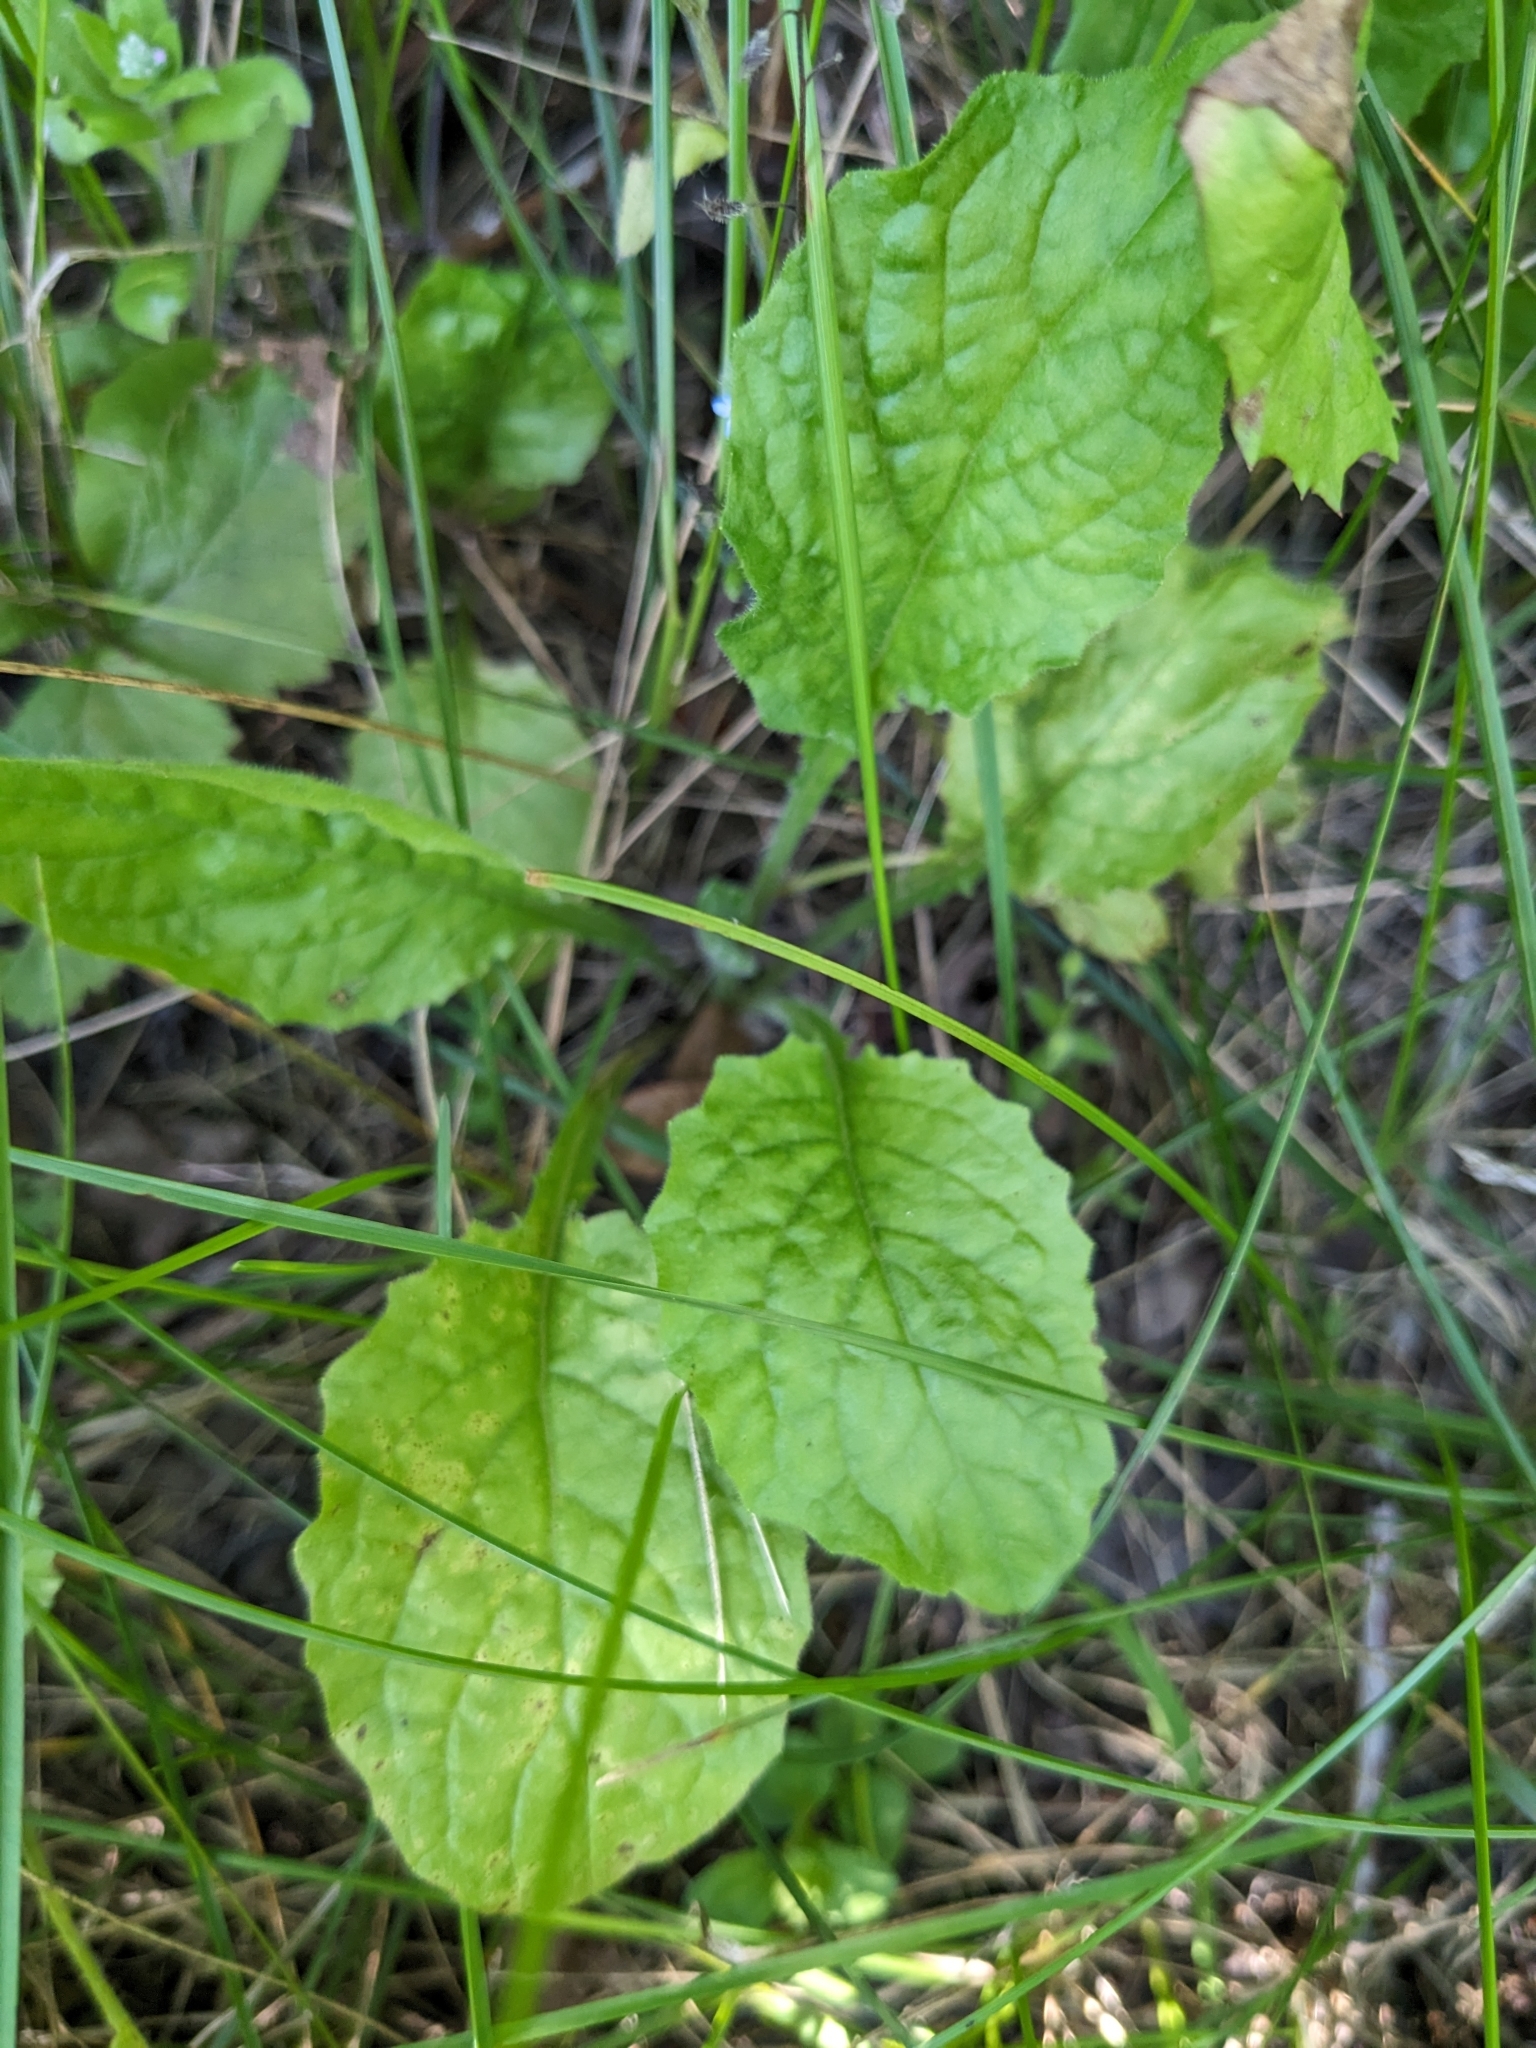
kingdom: Plantae
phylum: Tracheophyta
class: Magnoliopsida
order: Asterales
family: Asteraceae
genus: Lapsana
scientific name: Lapsana communis
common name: Nipplewort
